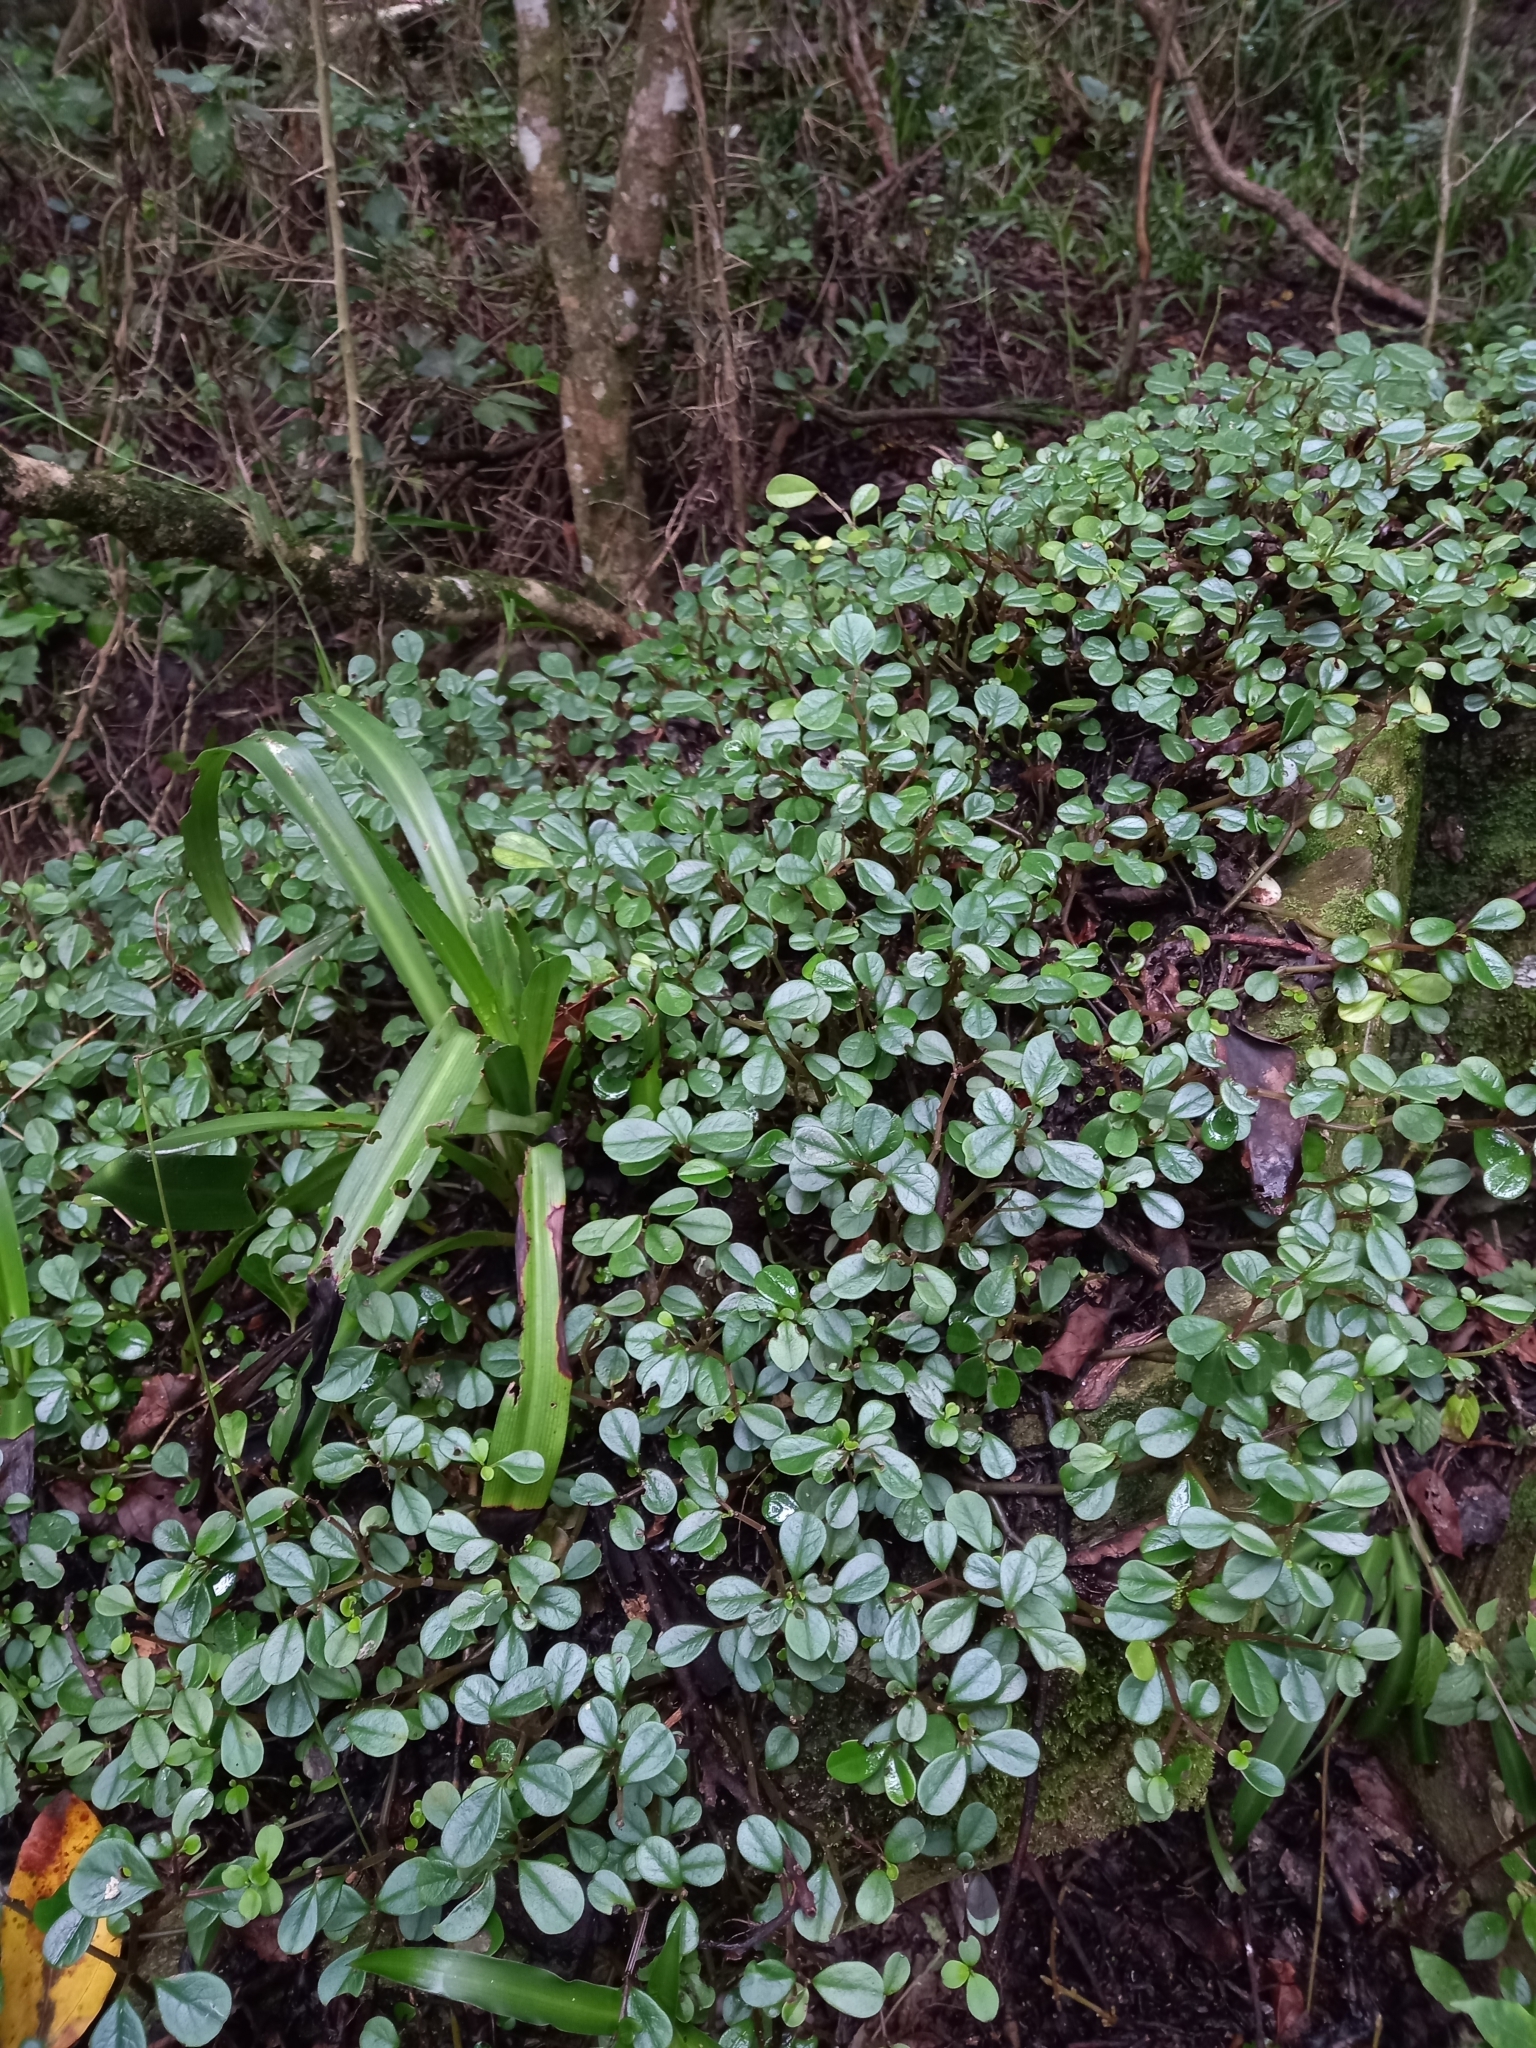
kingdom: Plantae
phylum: Tracheophyta
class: Magnoliopsida
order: Piperales
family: Piperaceae
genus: Peperomia
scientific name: Peperomia retusa
